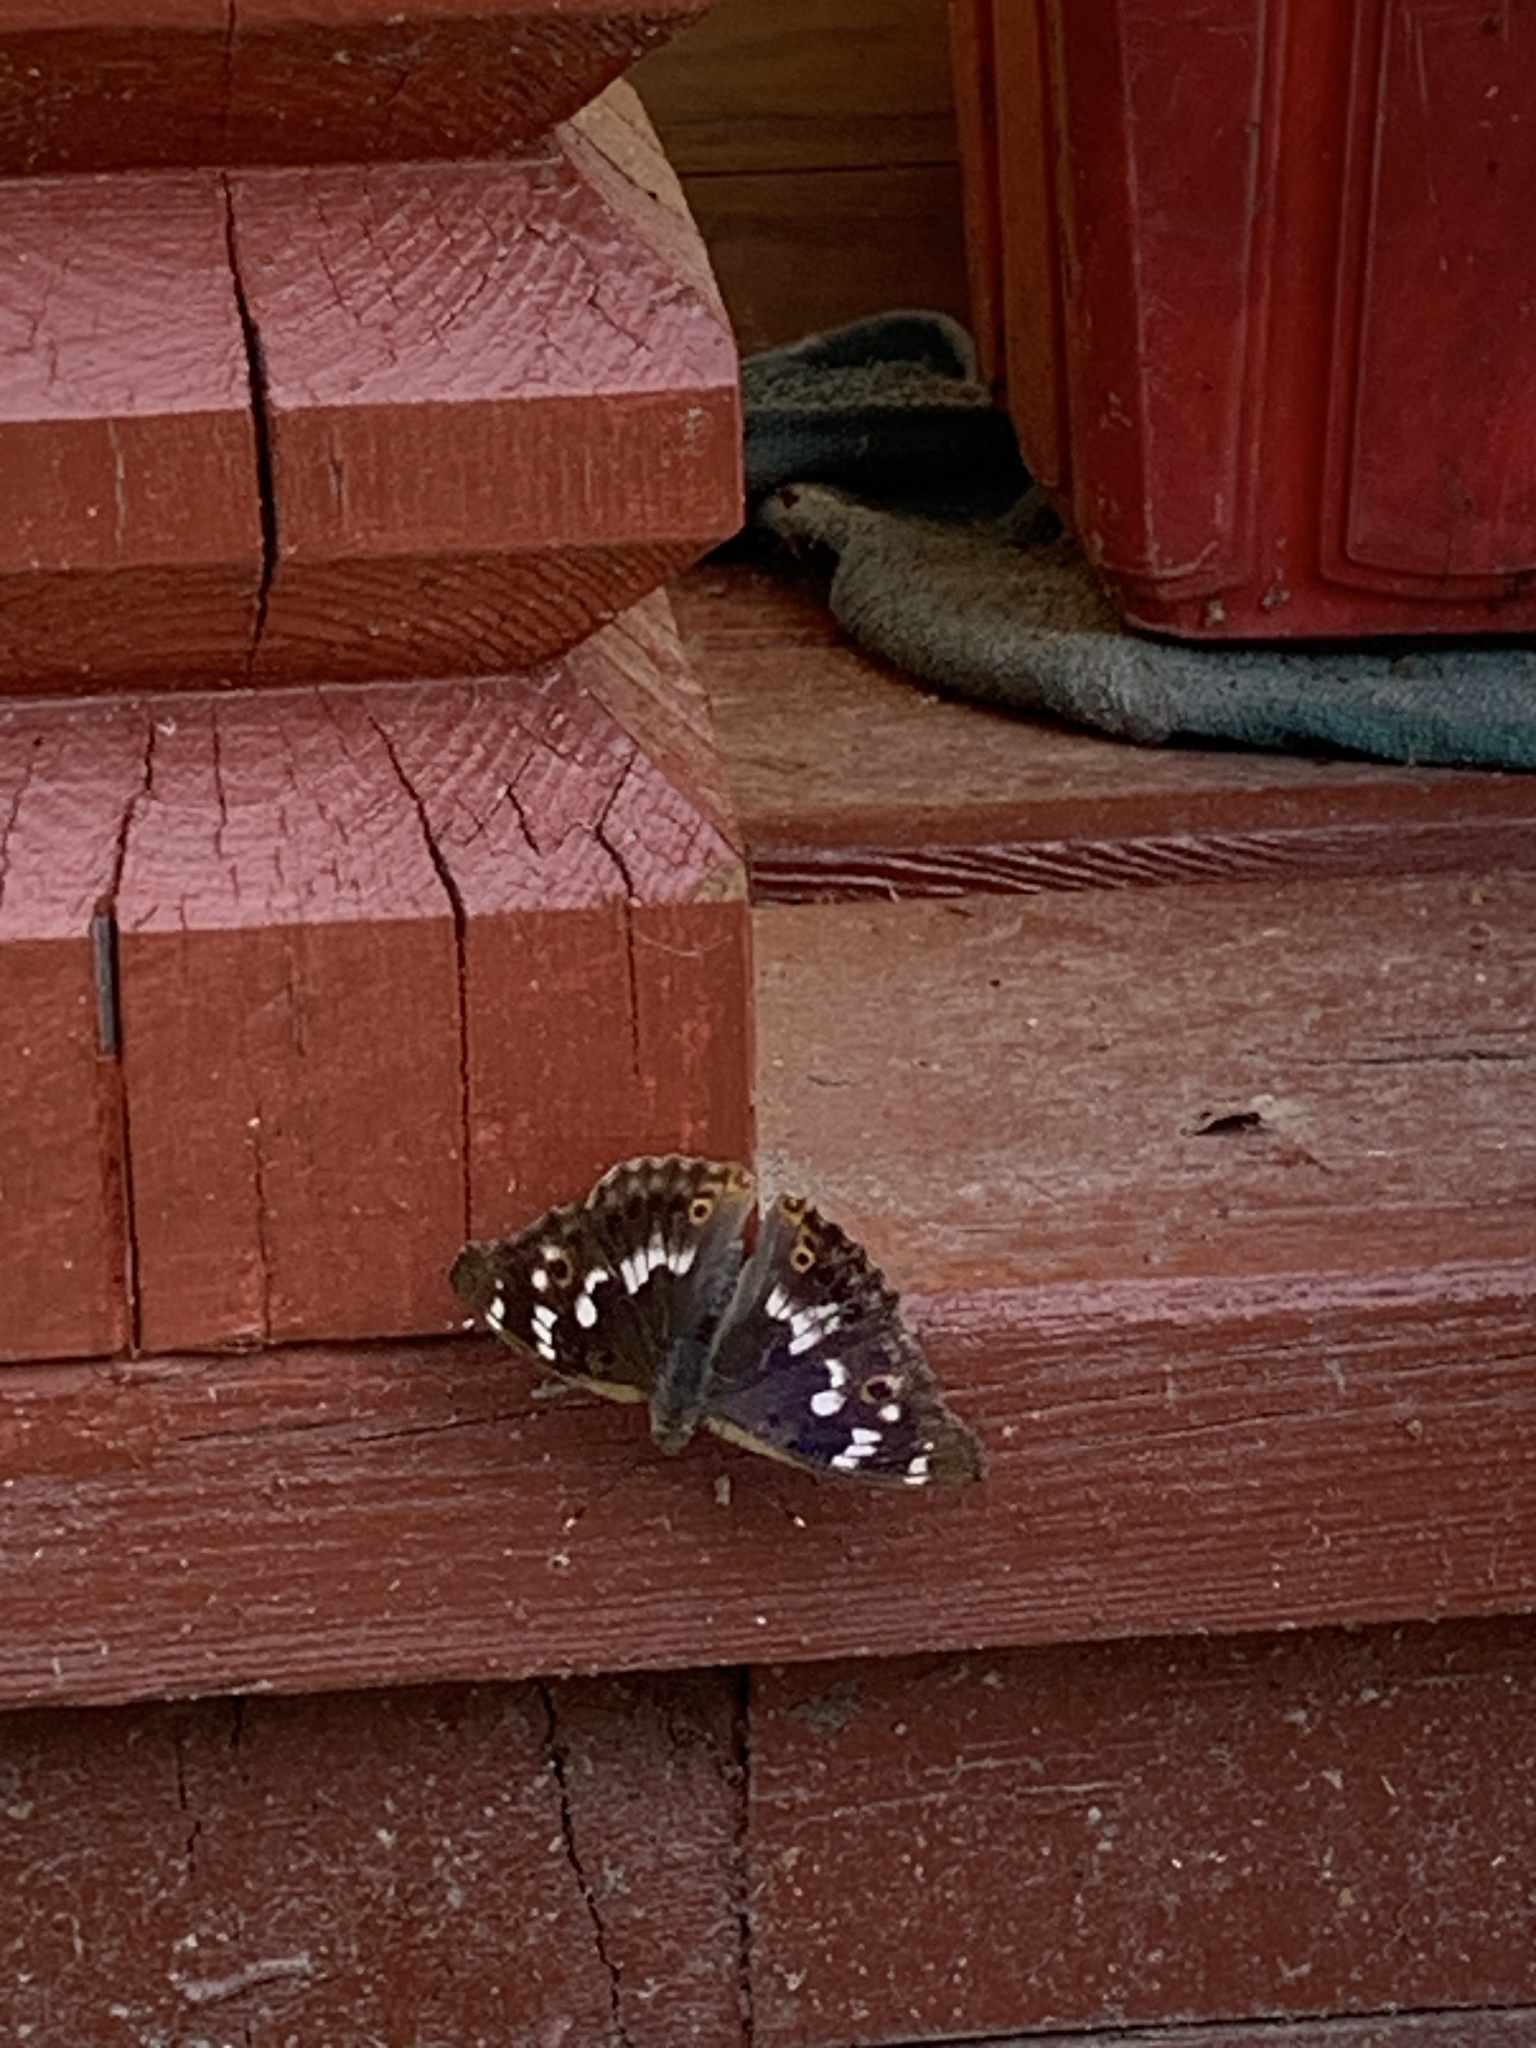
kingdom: Animalia
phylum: Arthropoda
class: Insecta
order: Lepidoptera
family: Nymphalidae
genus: Apatura
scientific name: Apatura ilia
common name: Lesser purple emperor
